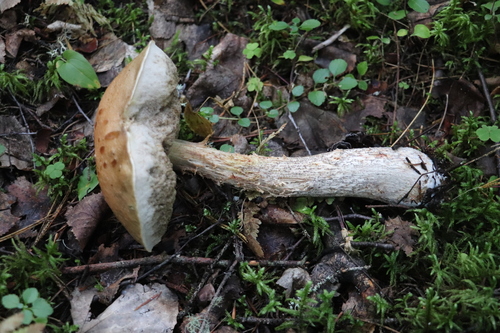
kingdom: Fungi
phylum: Basidiomycota
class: Agaricomycetes
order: Boletales
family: Boletaceae
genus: Leccinum
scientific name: Leccinum scabrum
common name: Blushing bolete
